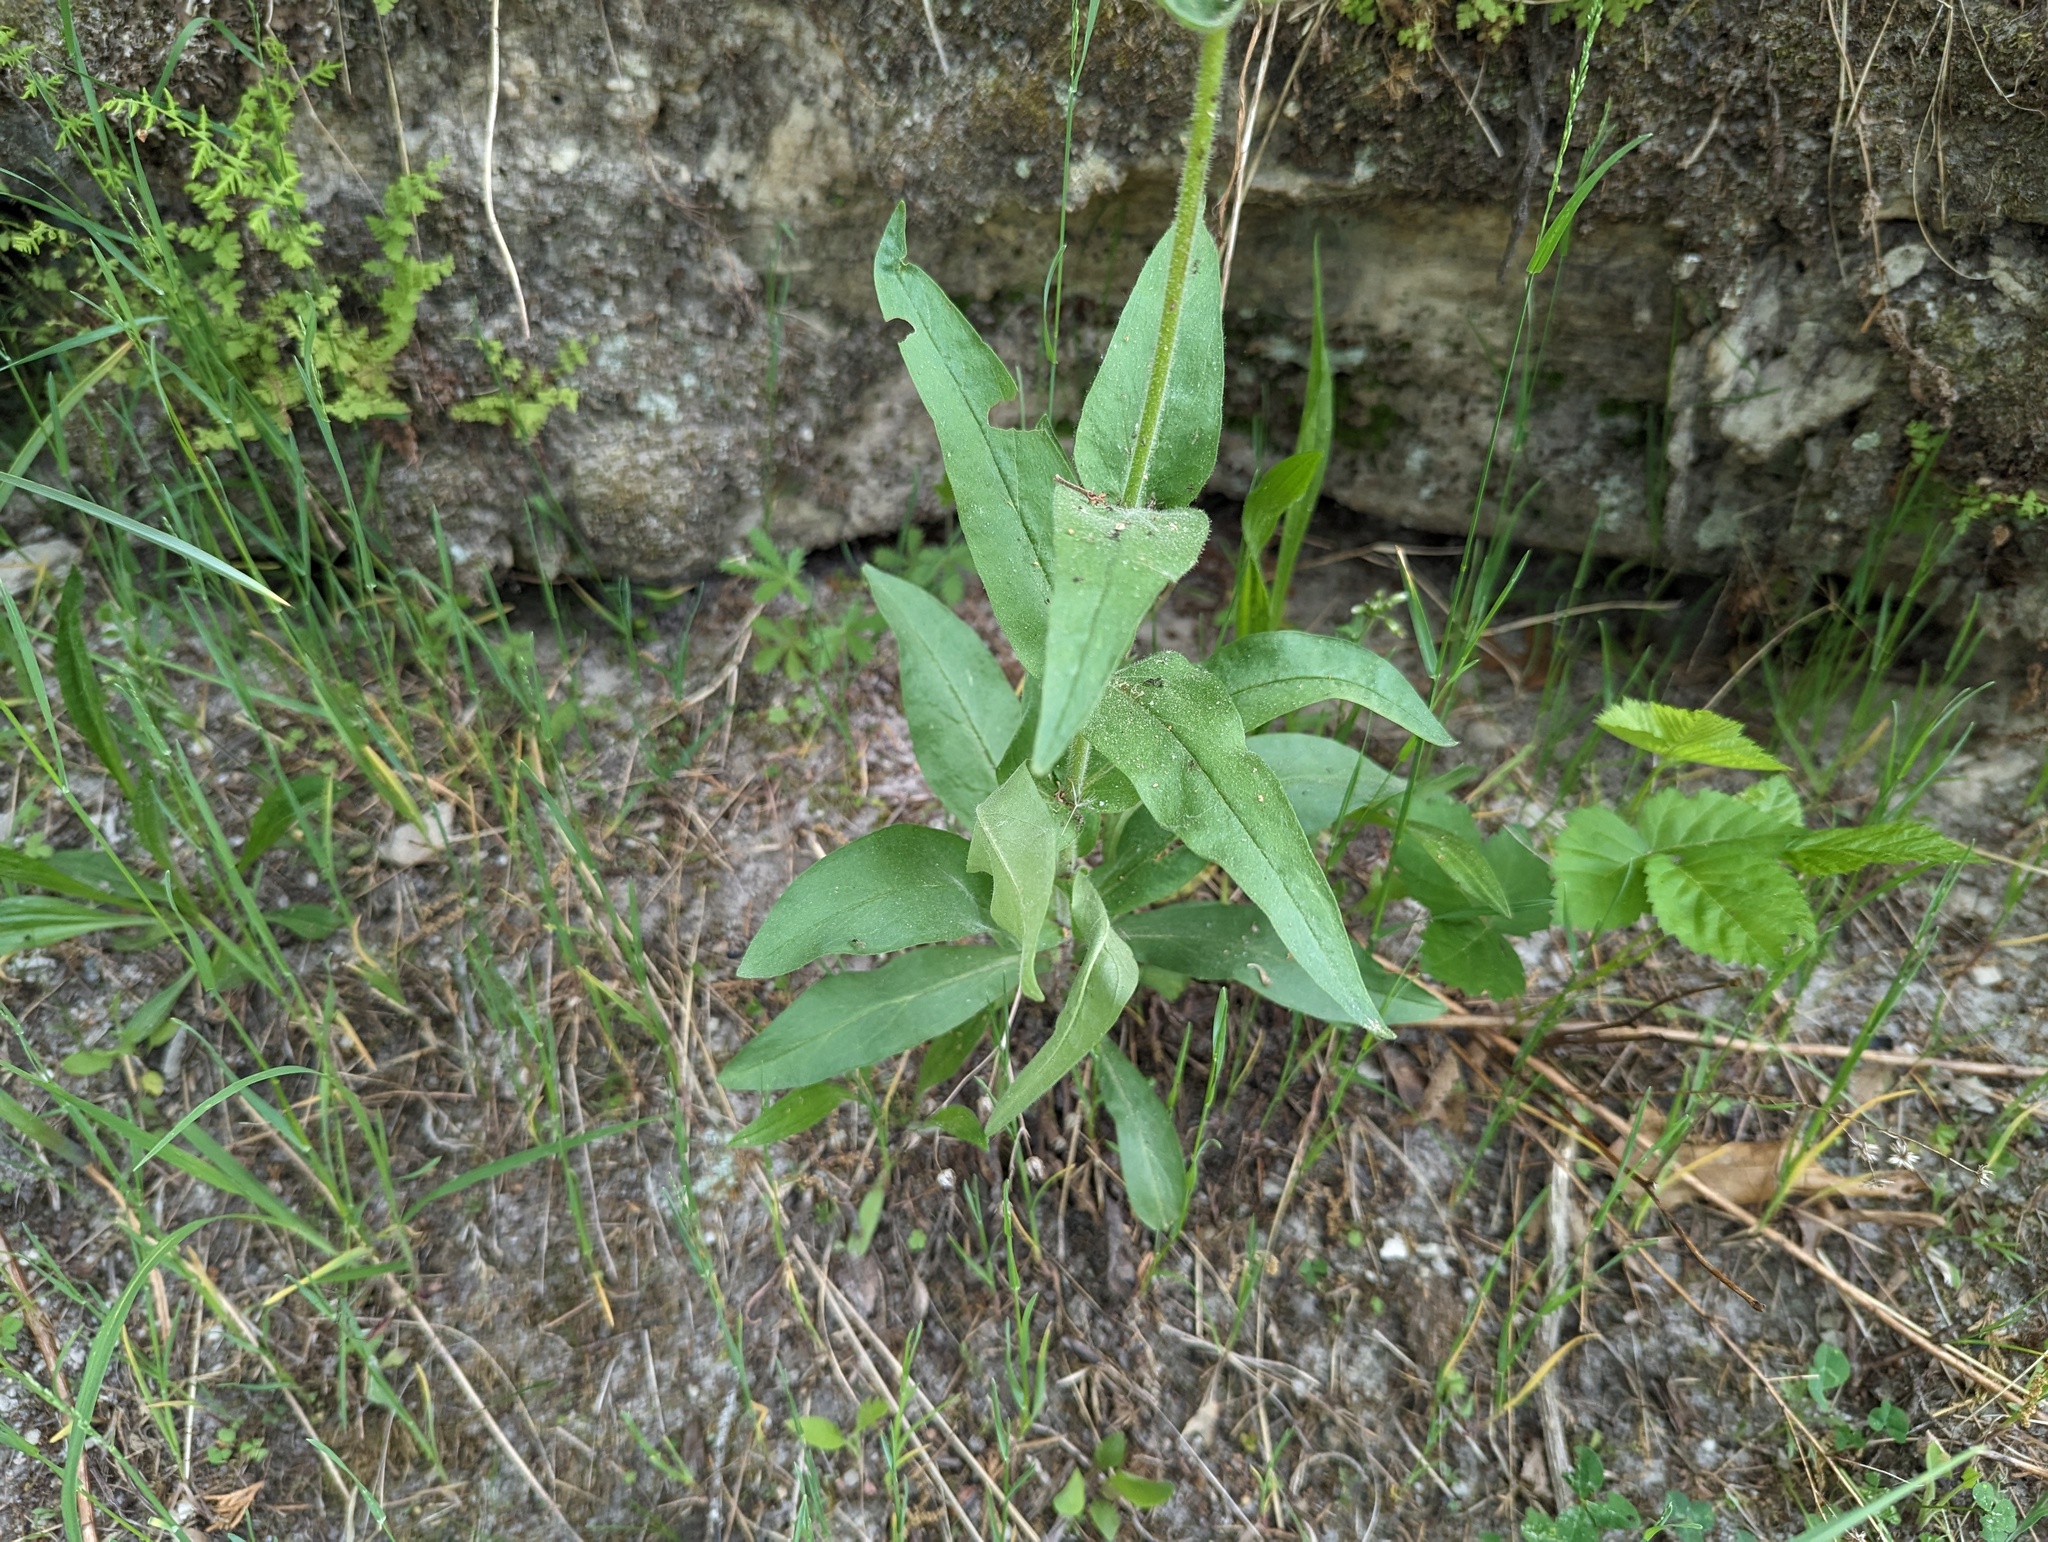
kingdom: Plantae
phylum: Tracheophyta
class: Magnoliopsida
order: Lamiales
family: Plantaginaceae
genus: Penstemon
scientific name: Penstemon pallidus
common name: Pale beardtongue
